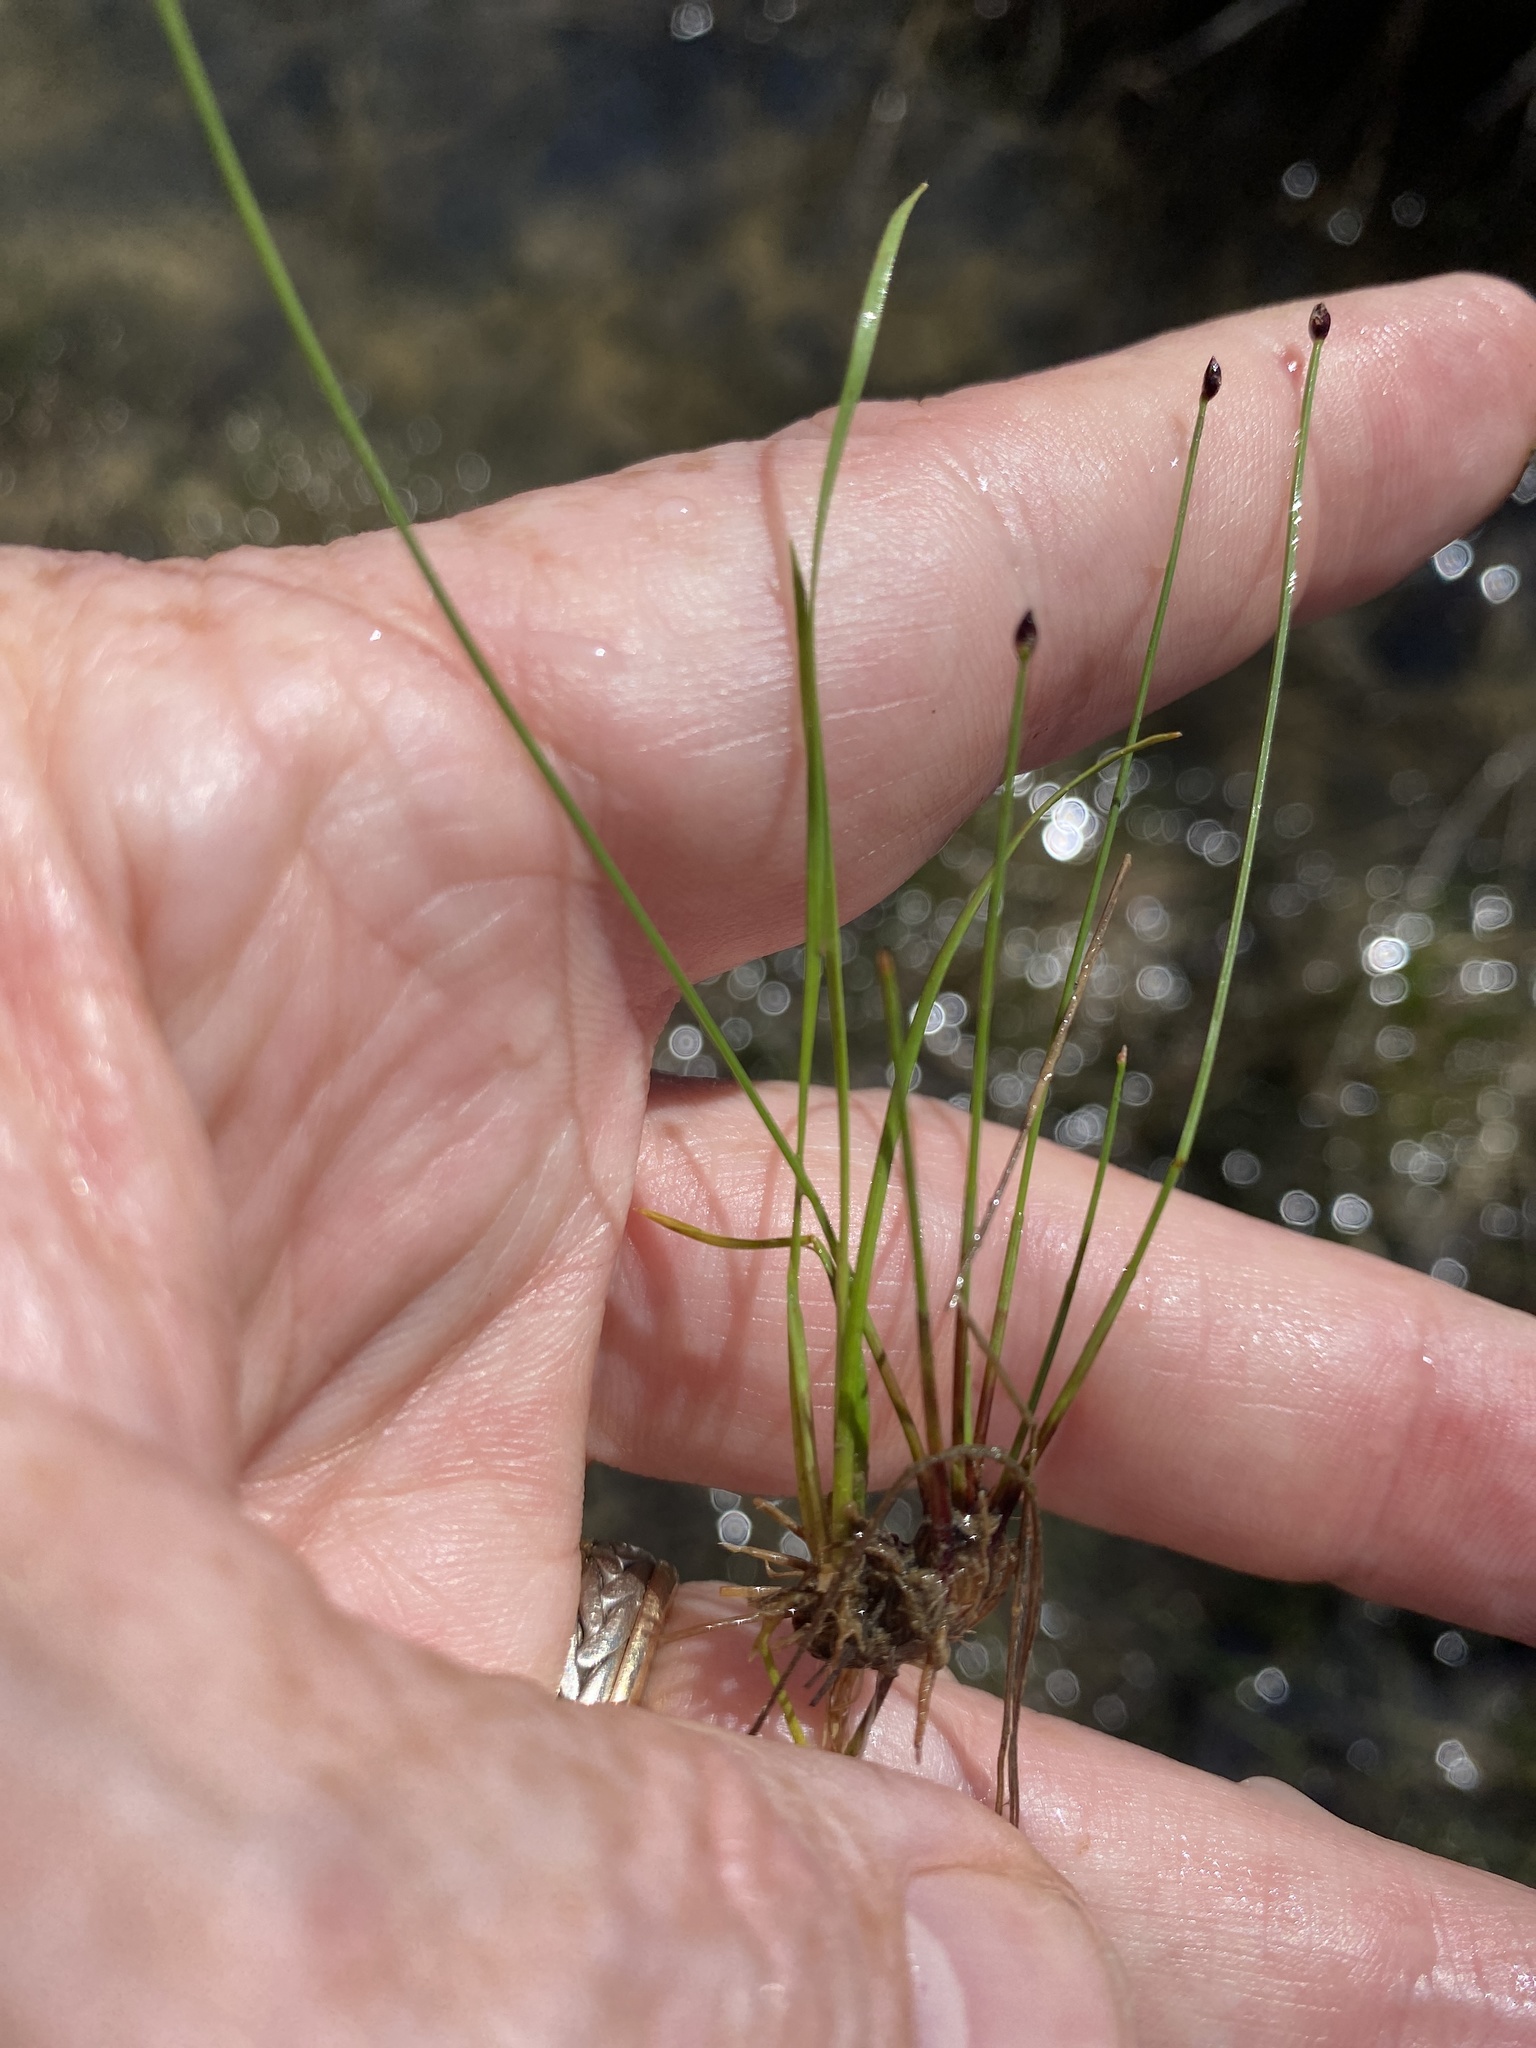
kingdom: Plantae
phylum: Tracheophyta
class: Liliopsida
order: Poales
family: Cyperaceae
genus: Eleocharis
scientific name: Eleocharis wolfii
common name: Wolf's spikerush
